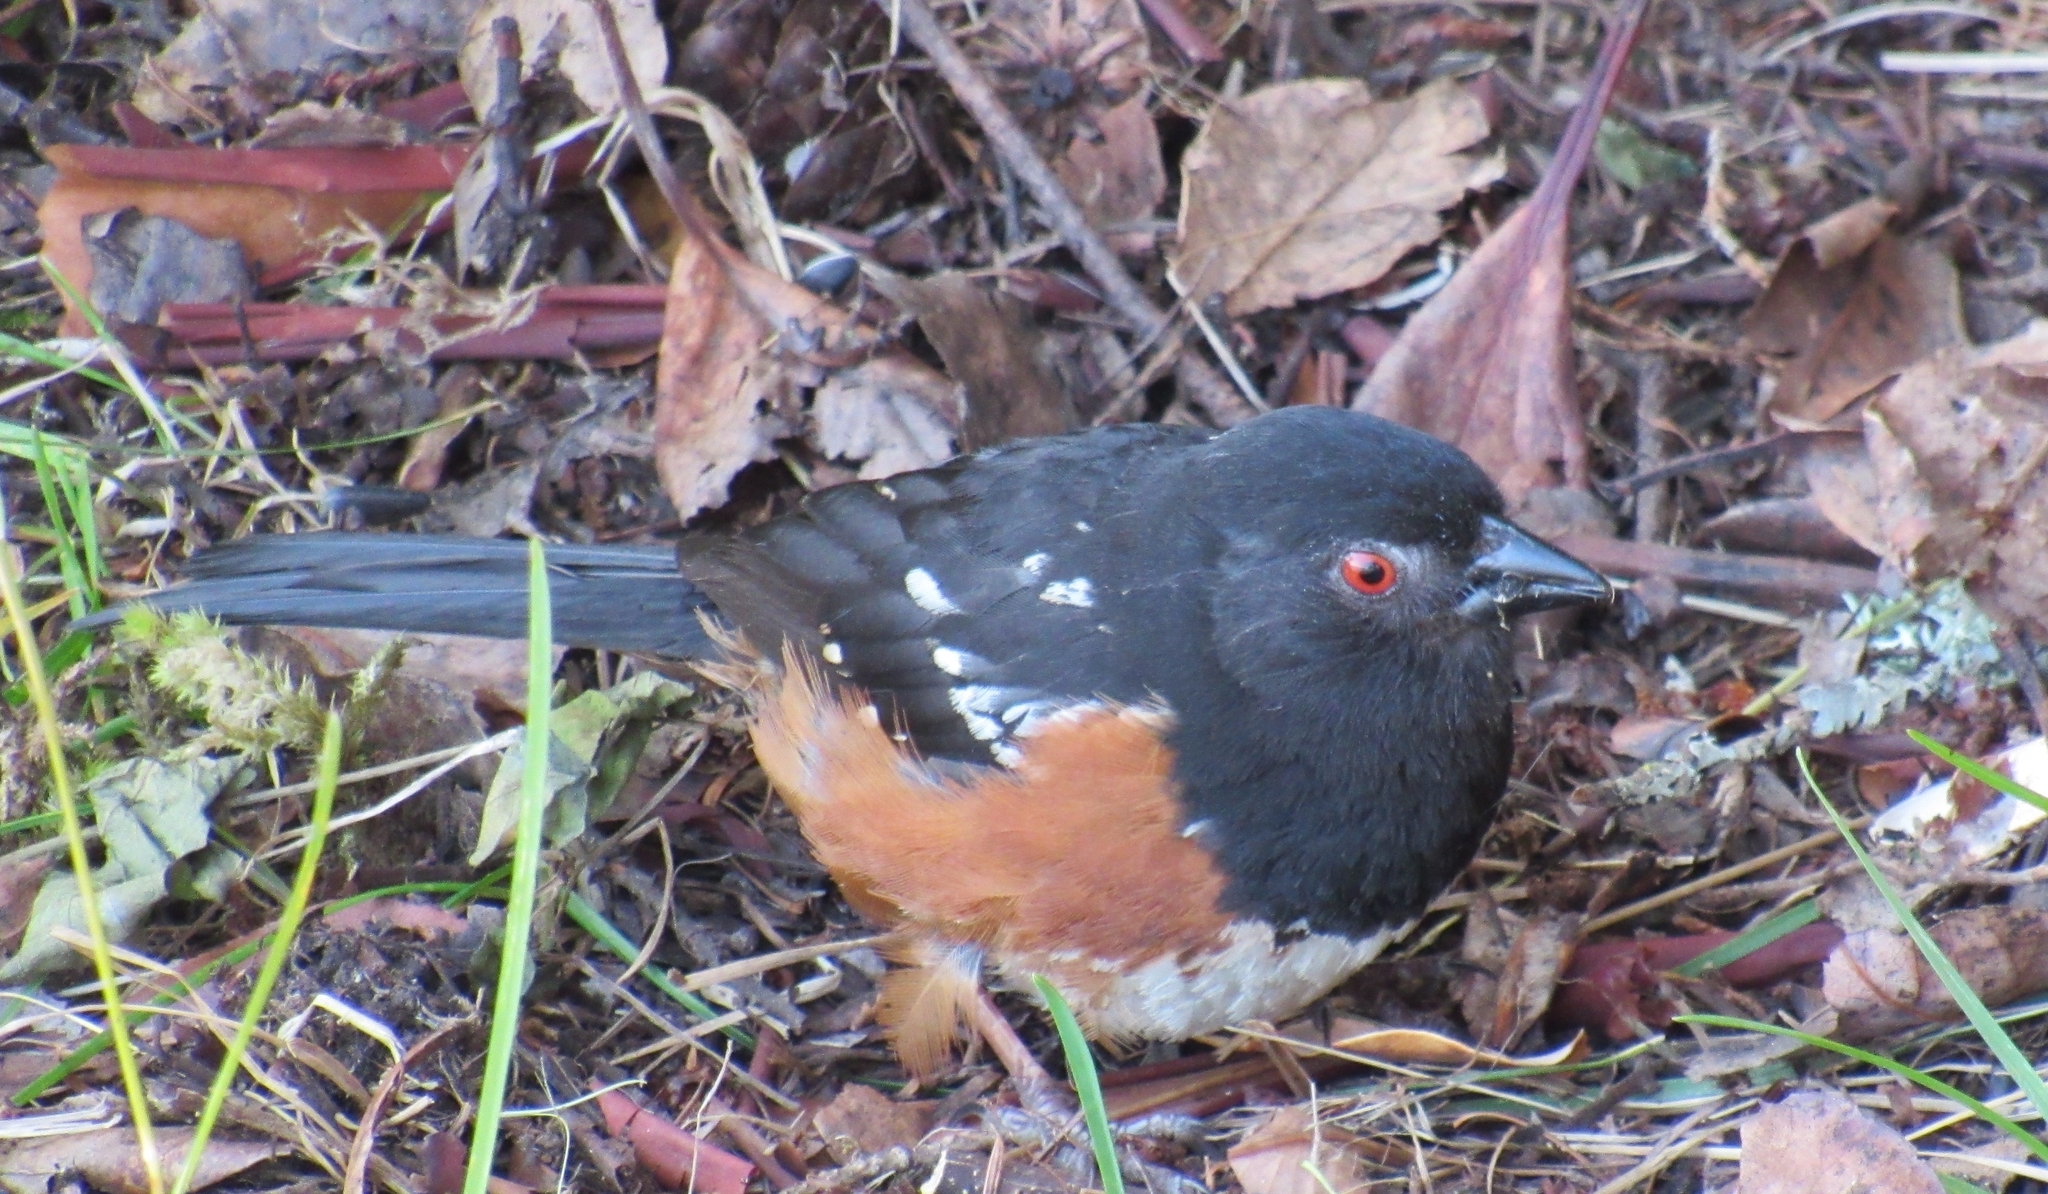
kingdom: Animalia
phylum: Chordata
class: Aves
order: Passeriformes
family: Passerellidae
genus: Pipilo
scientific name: Pipilo maculatus
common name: Spotted towhee
